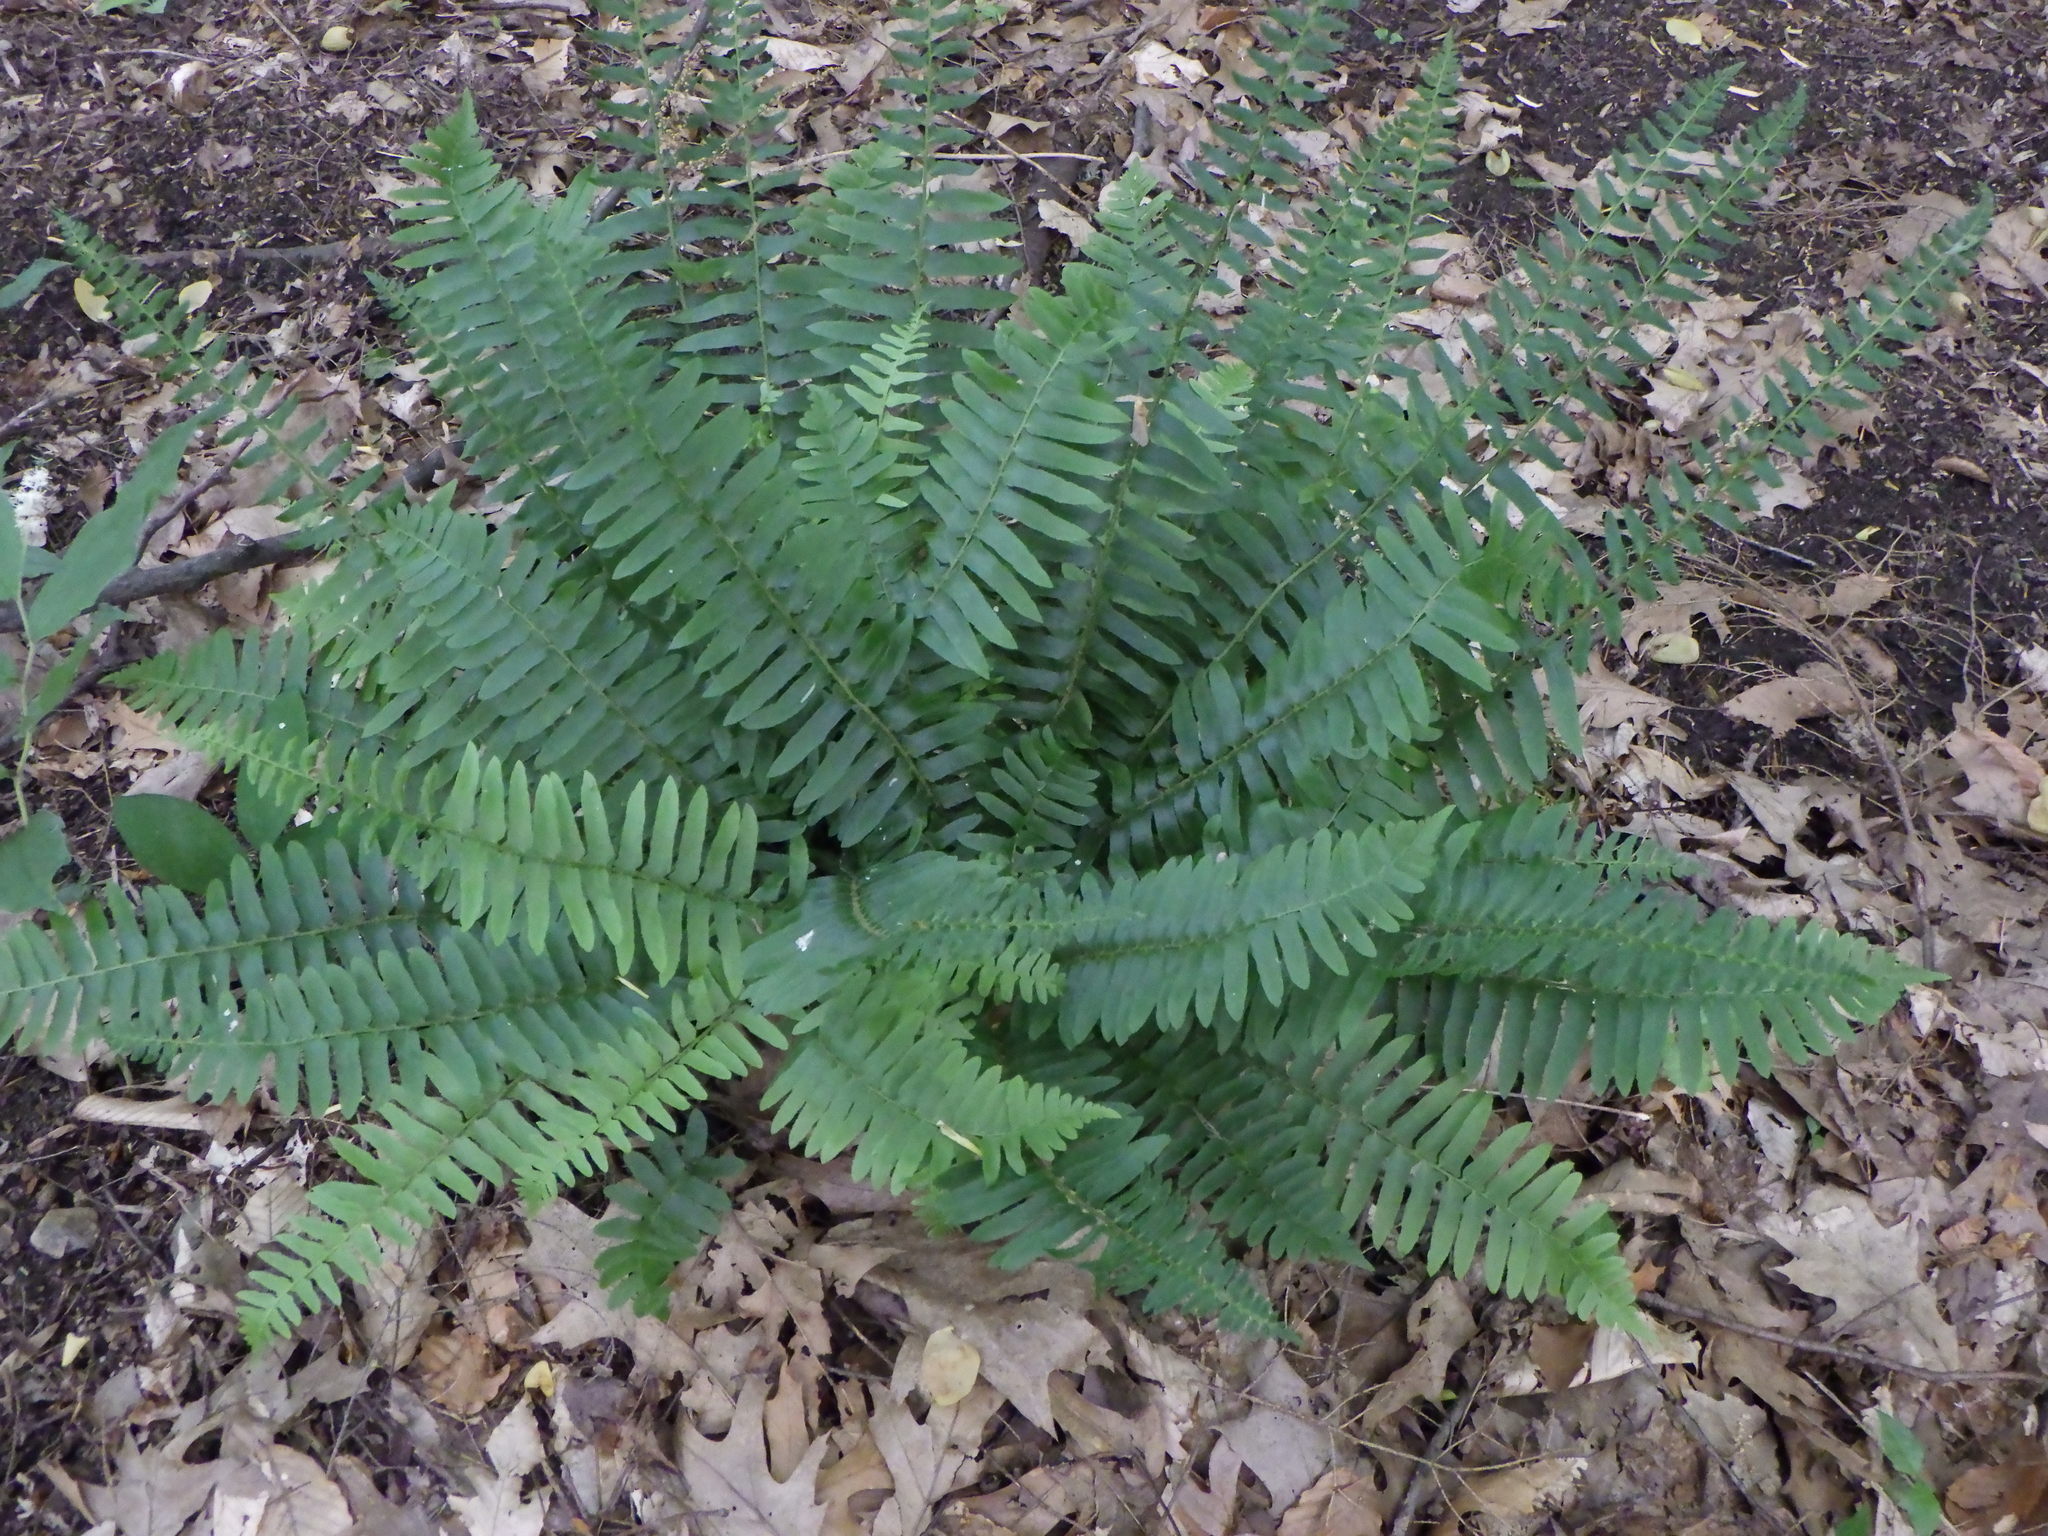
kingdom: Plantae
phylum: Tracheophyta
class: Polypodiopsida
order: Polypodiales
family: Dryopteridaceae
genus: Polystichum
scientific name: Polystichum acrostichoides
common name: Christmas fern
